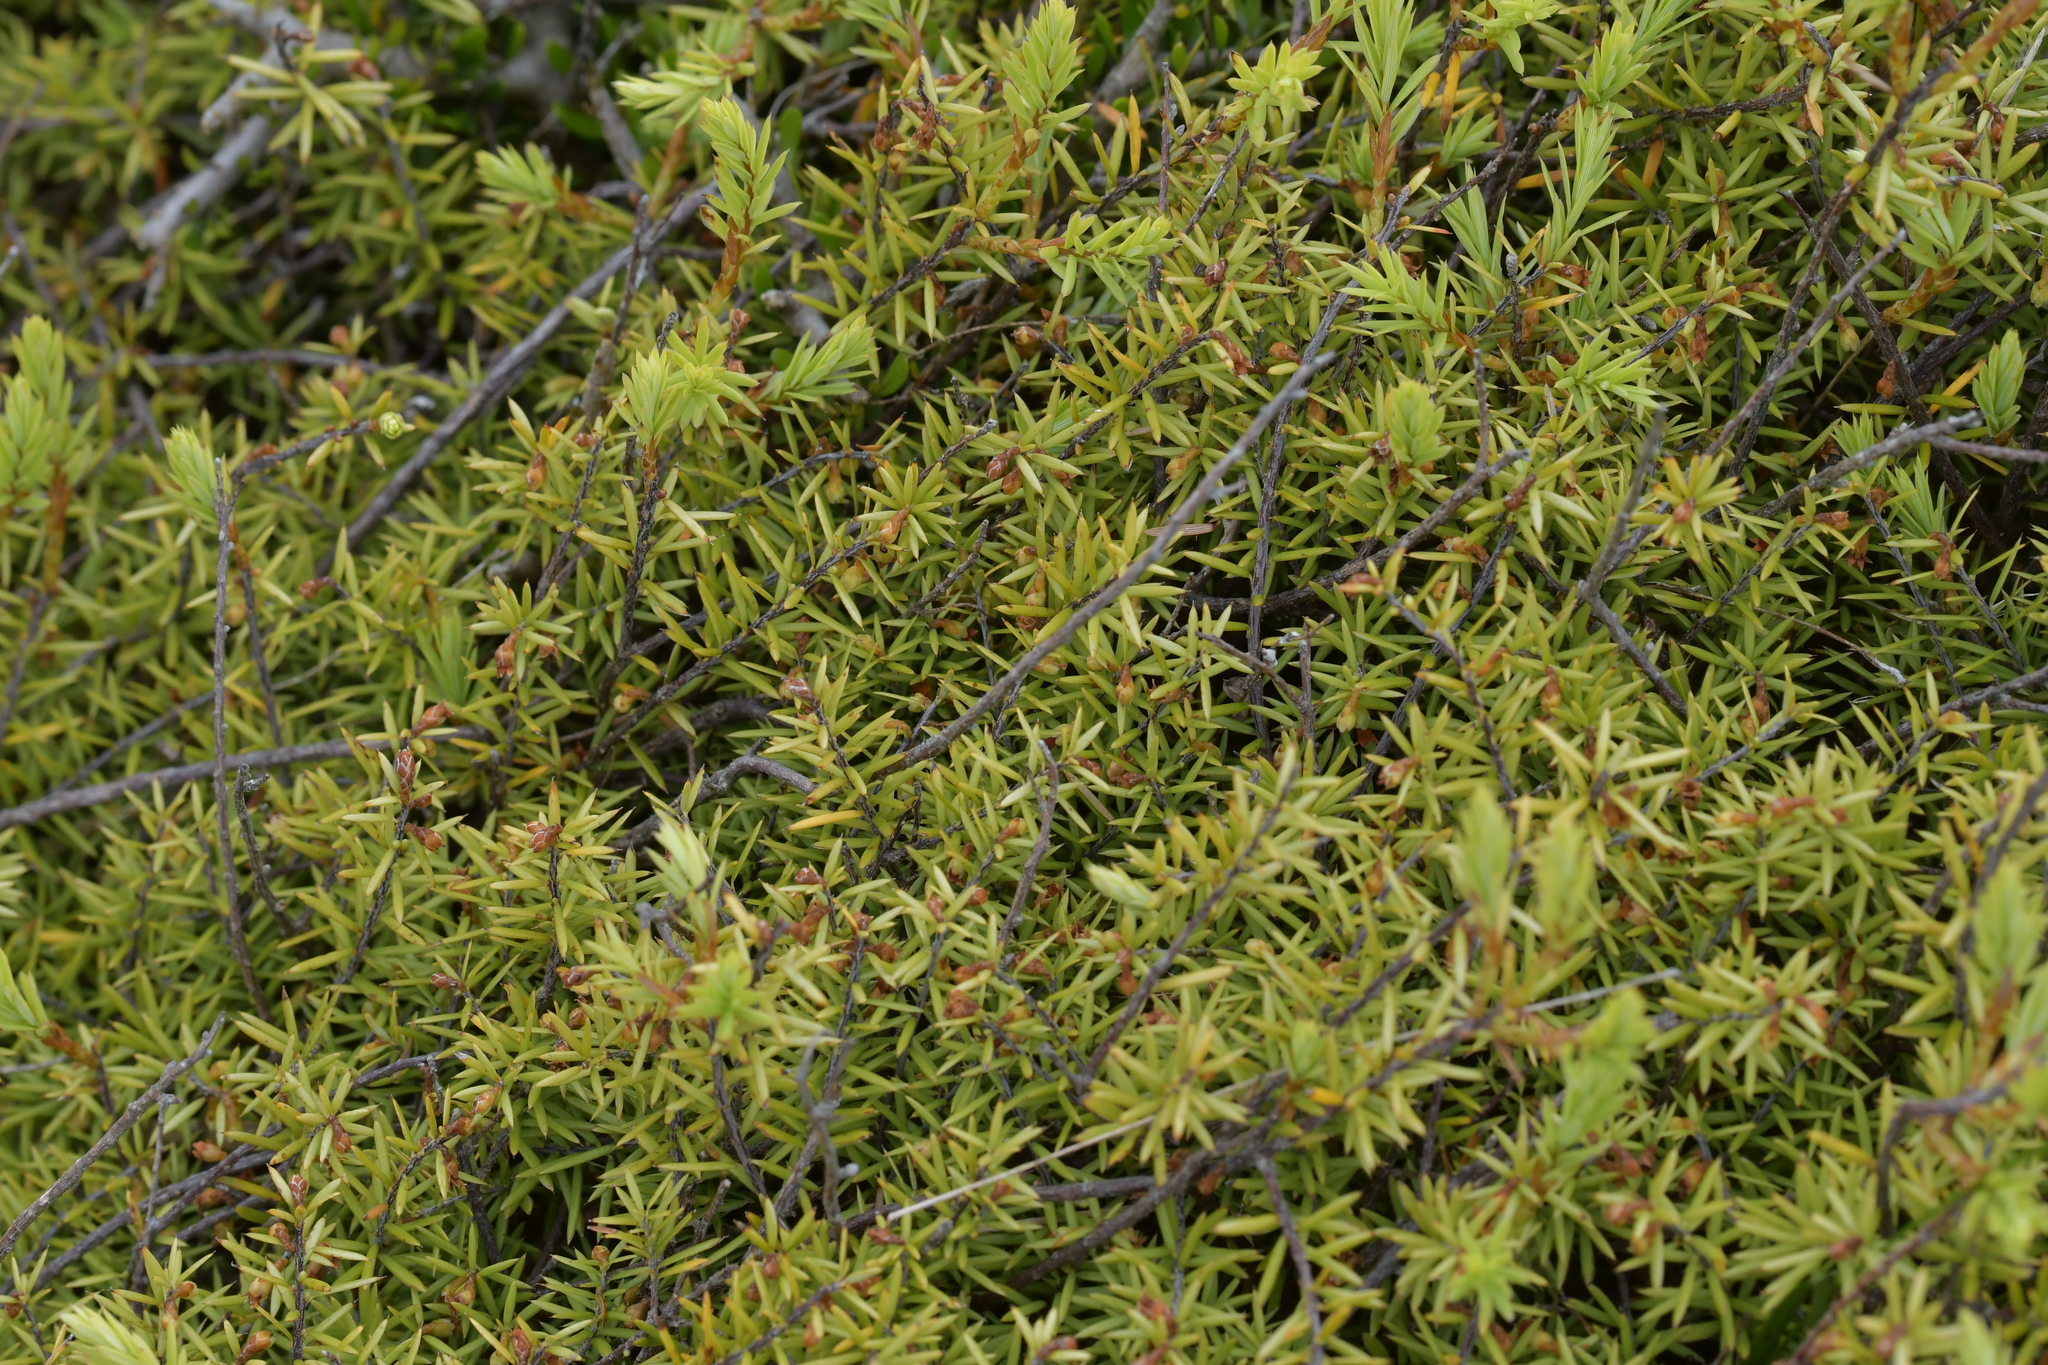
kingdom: Plantae
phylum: Tracheophyta
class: Magnoliopsida
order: Ericales
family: Ericaceae
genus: Leptecophylla
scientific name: Leptecophylla juniperina
